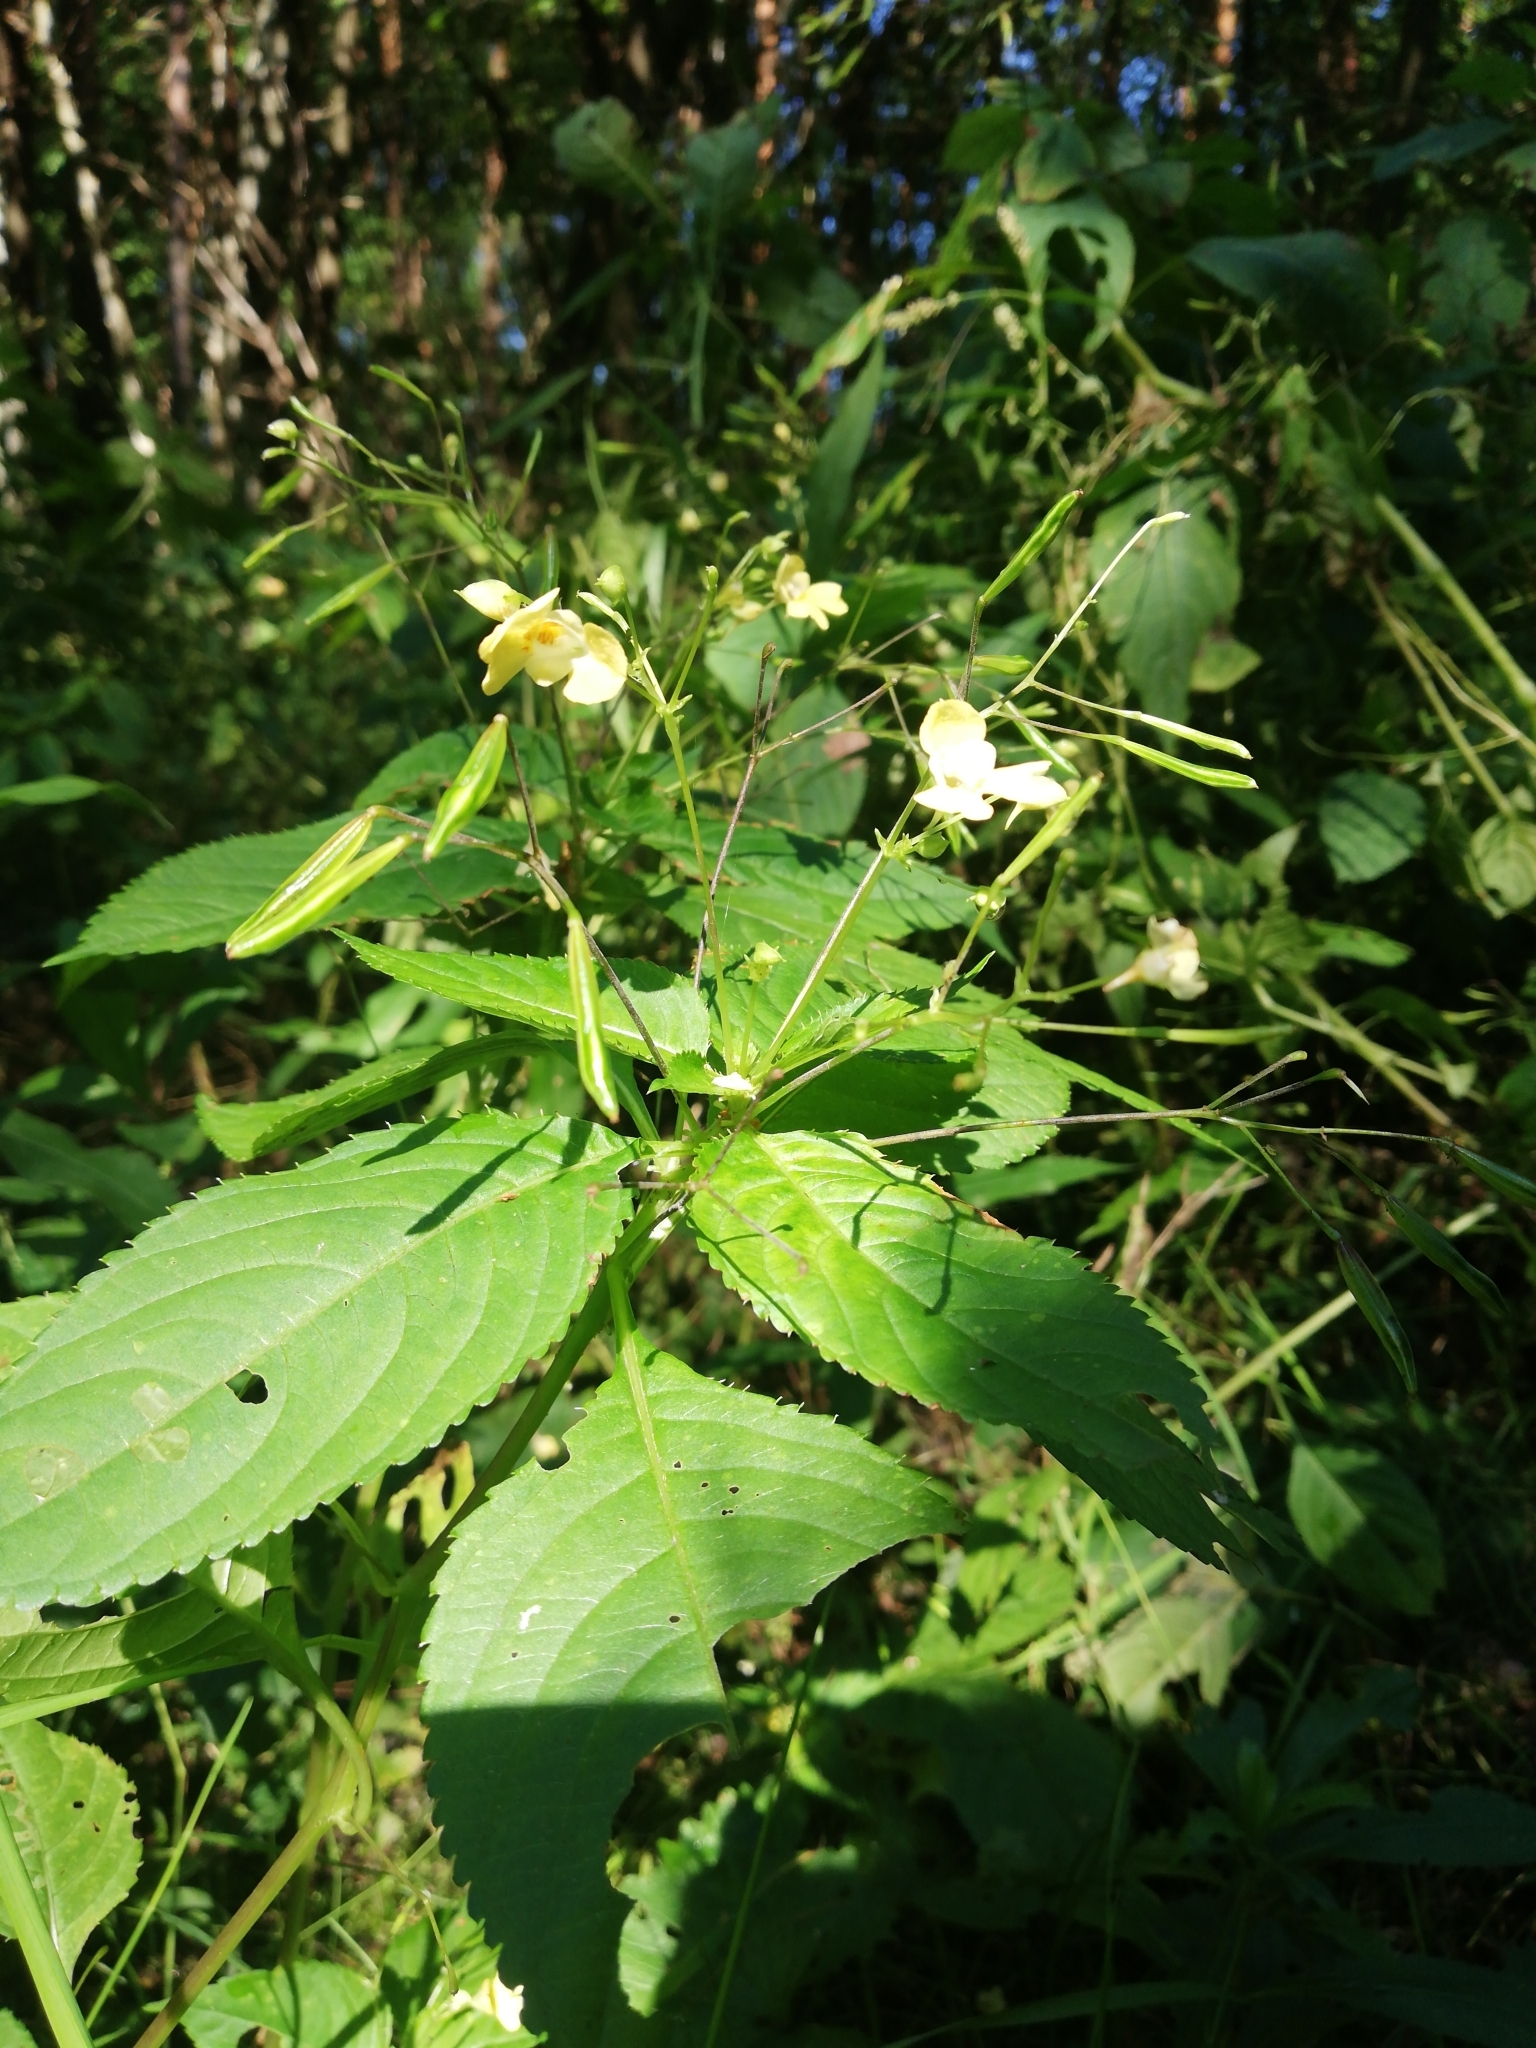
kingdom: Plantae
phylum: Tracheophyta
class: Magnoliopsida
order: Ericales
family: Balsaminaceae
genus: Impatiens
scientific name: Impatiens parviflora
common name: Small balsam
